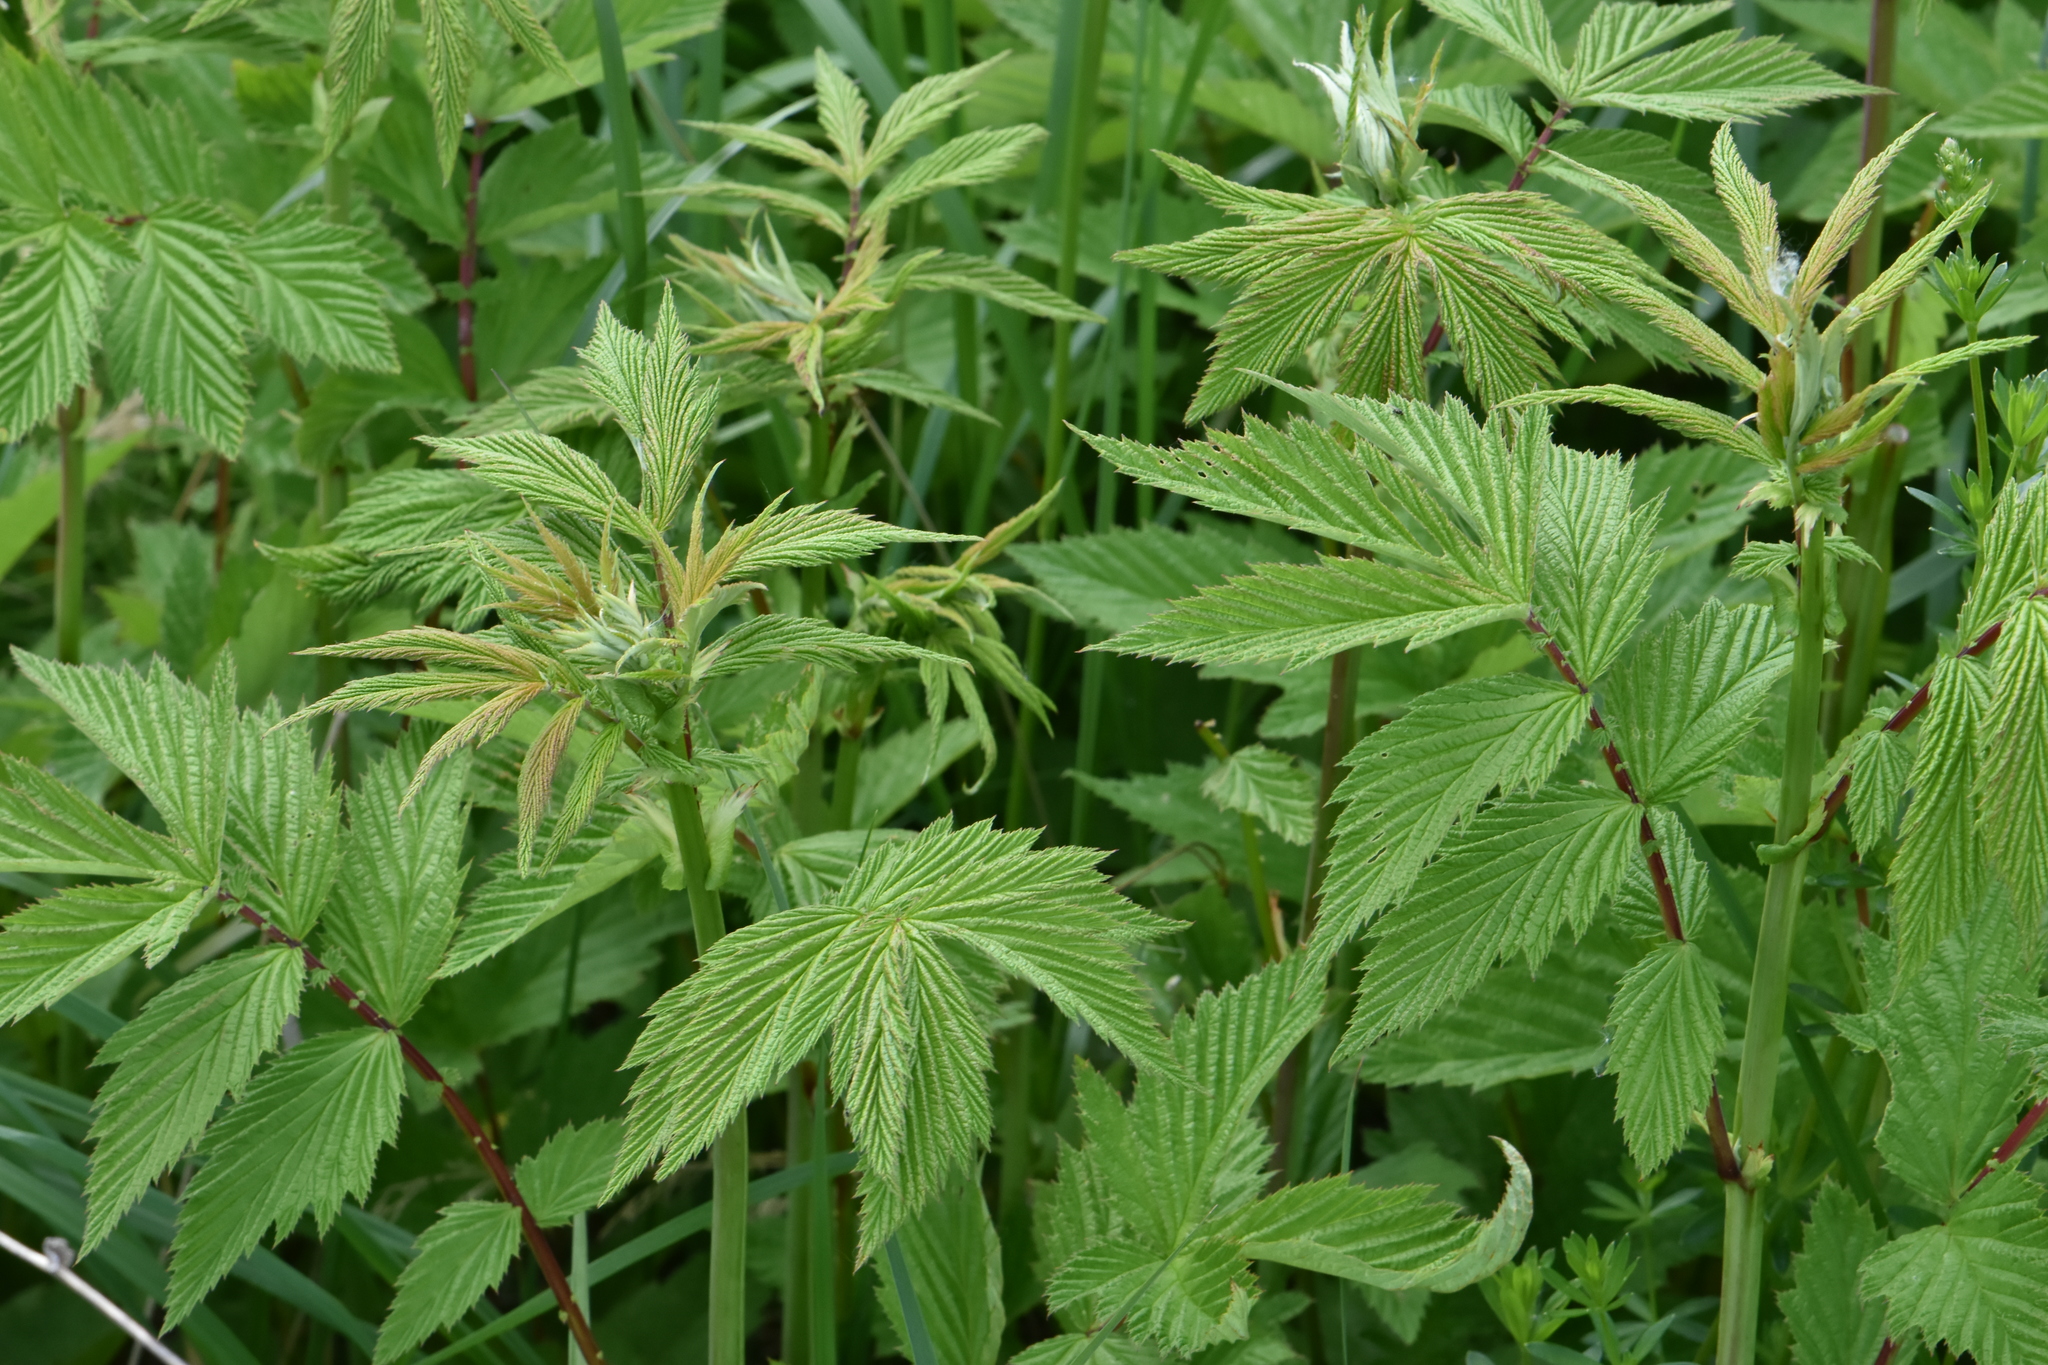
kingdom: Plantae
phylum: Tracheophyta
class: Magnoliopsida
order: Rosales
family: Rosaceae
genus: Filipendula
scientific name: Filipendula ulmaria
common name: Meadowsweet
